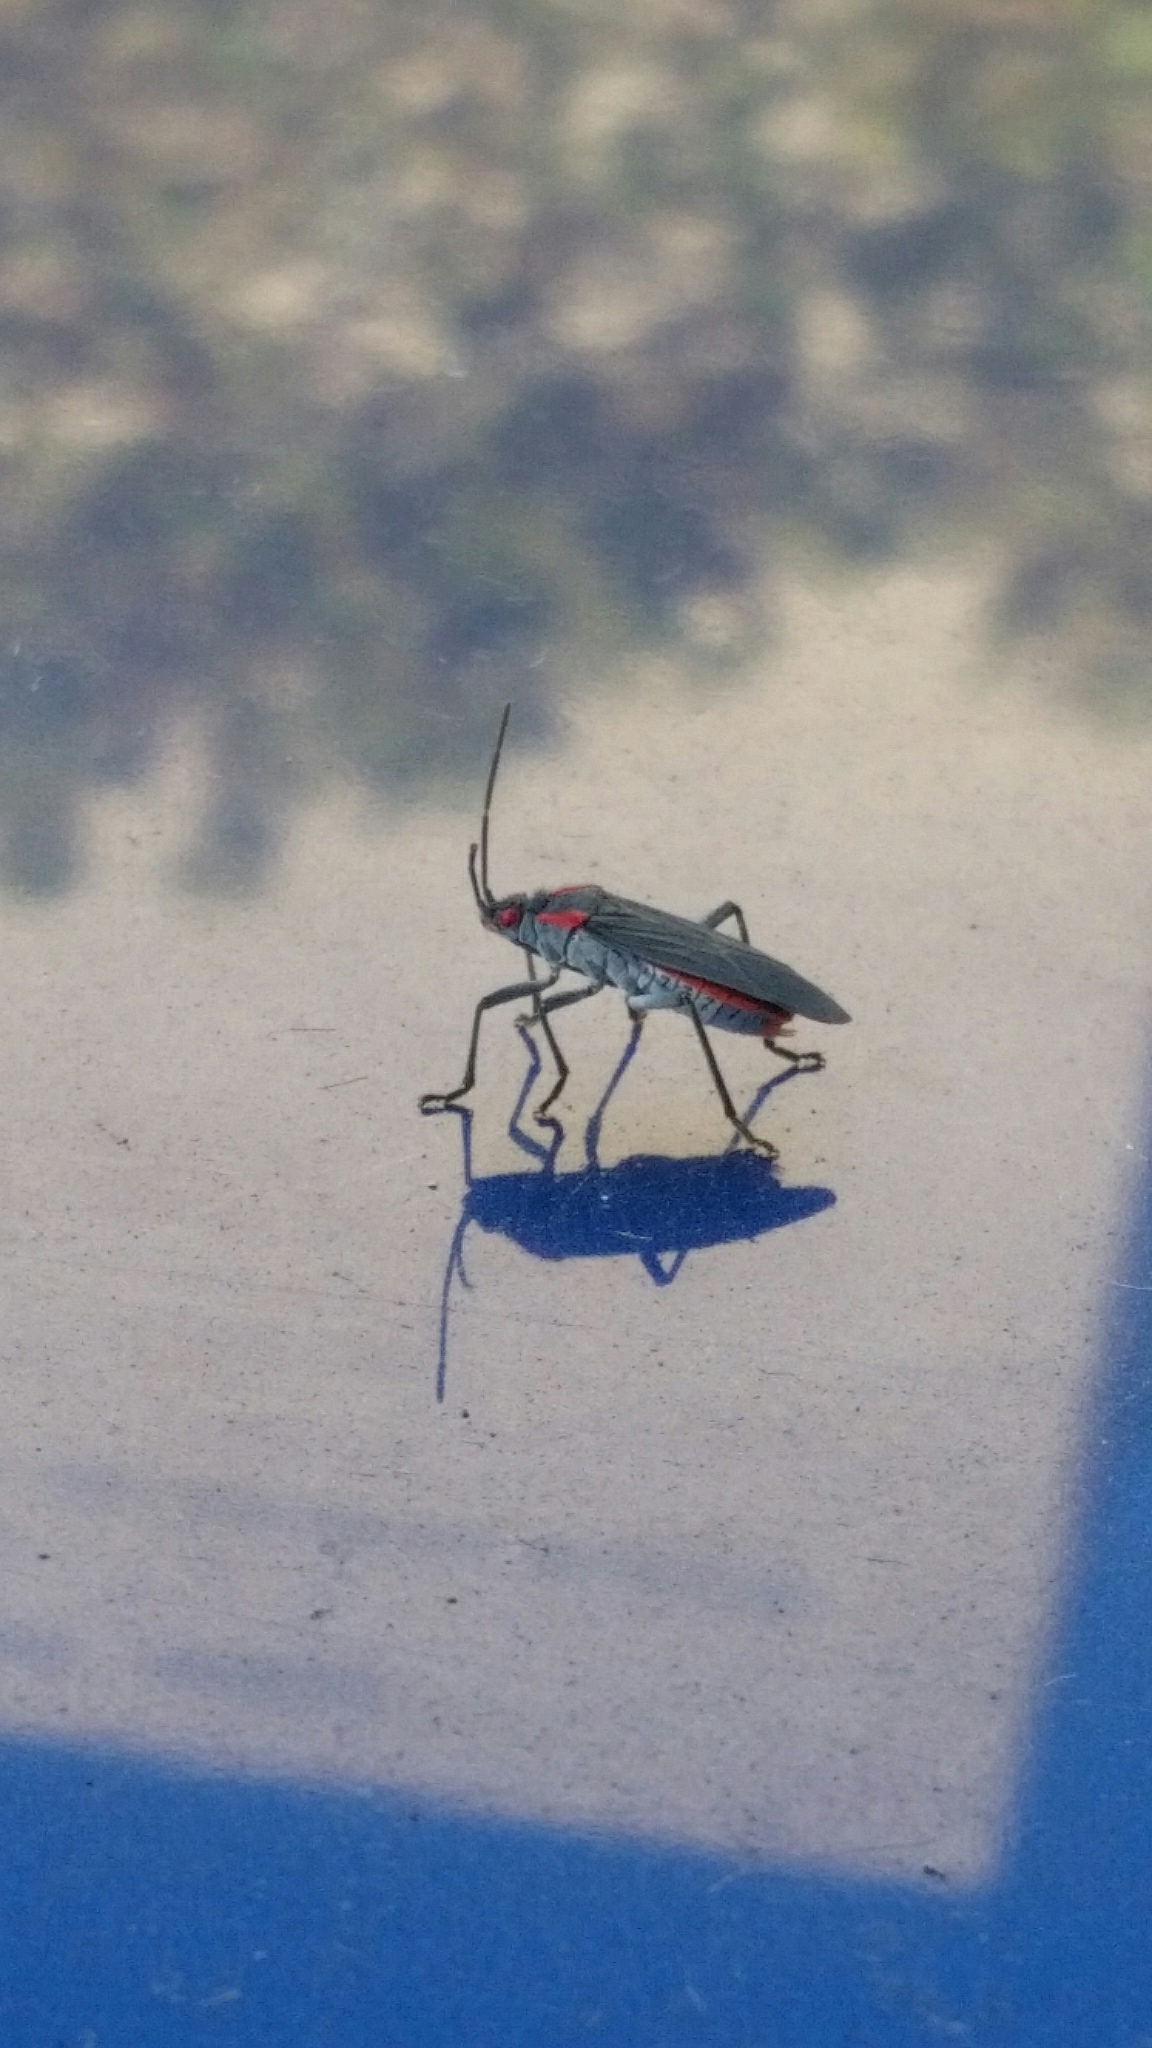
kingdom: Animalia
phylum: Arthropoda
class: Insecta
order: Hemiptera
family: Rhopalidae
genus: Jadera
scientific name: Jadera haematoloma
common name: Red-shouldered bug
